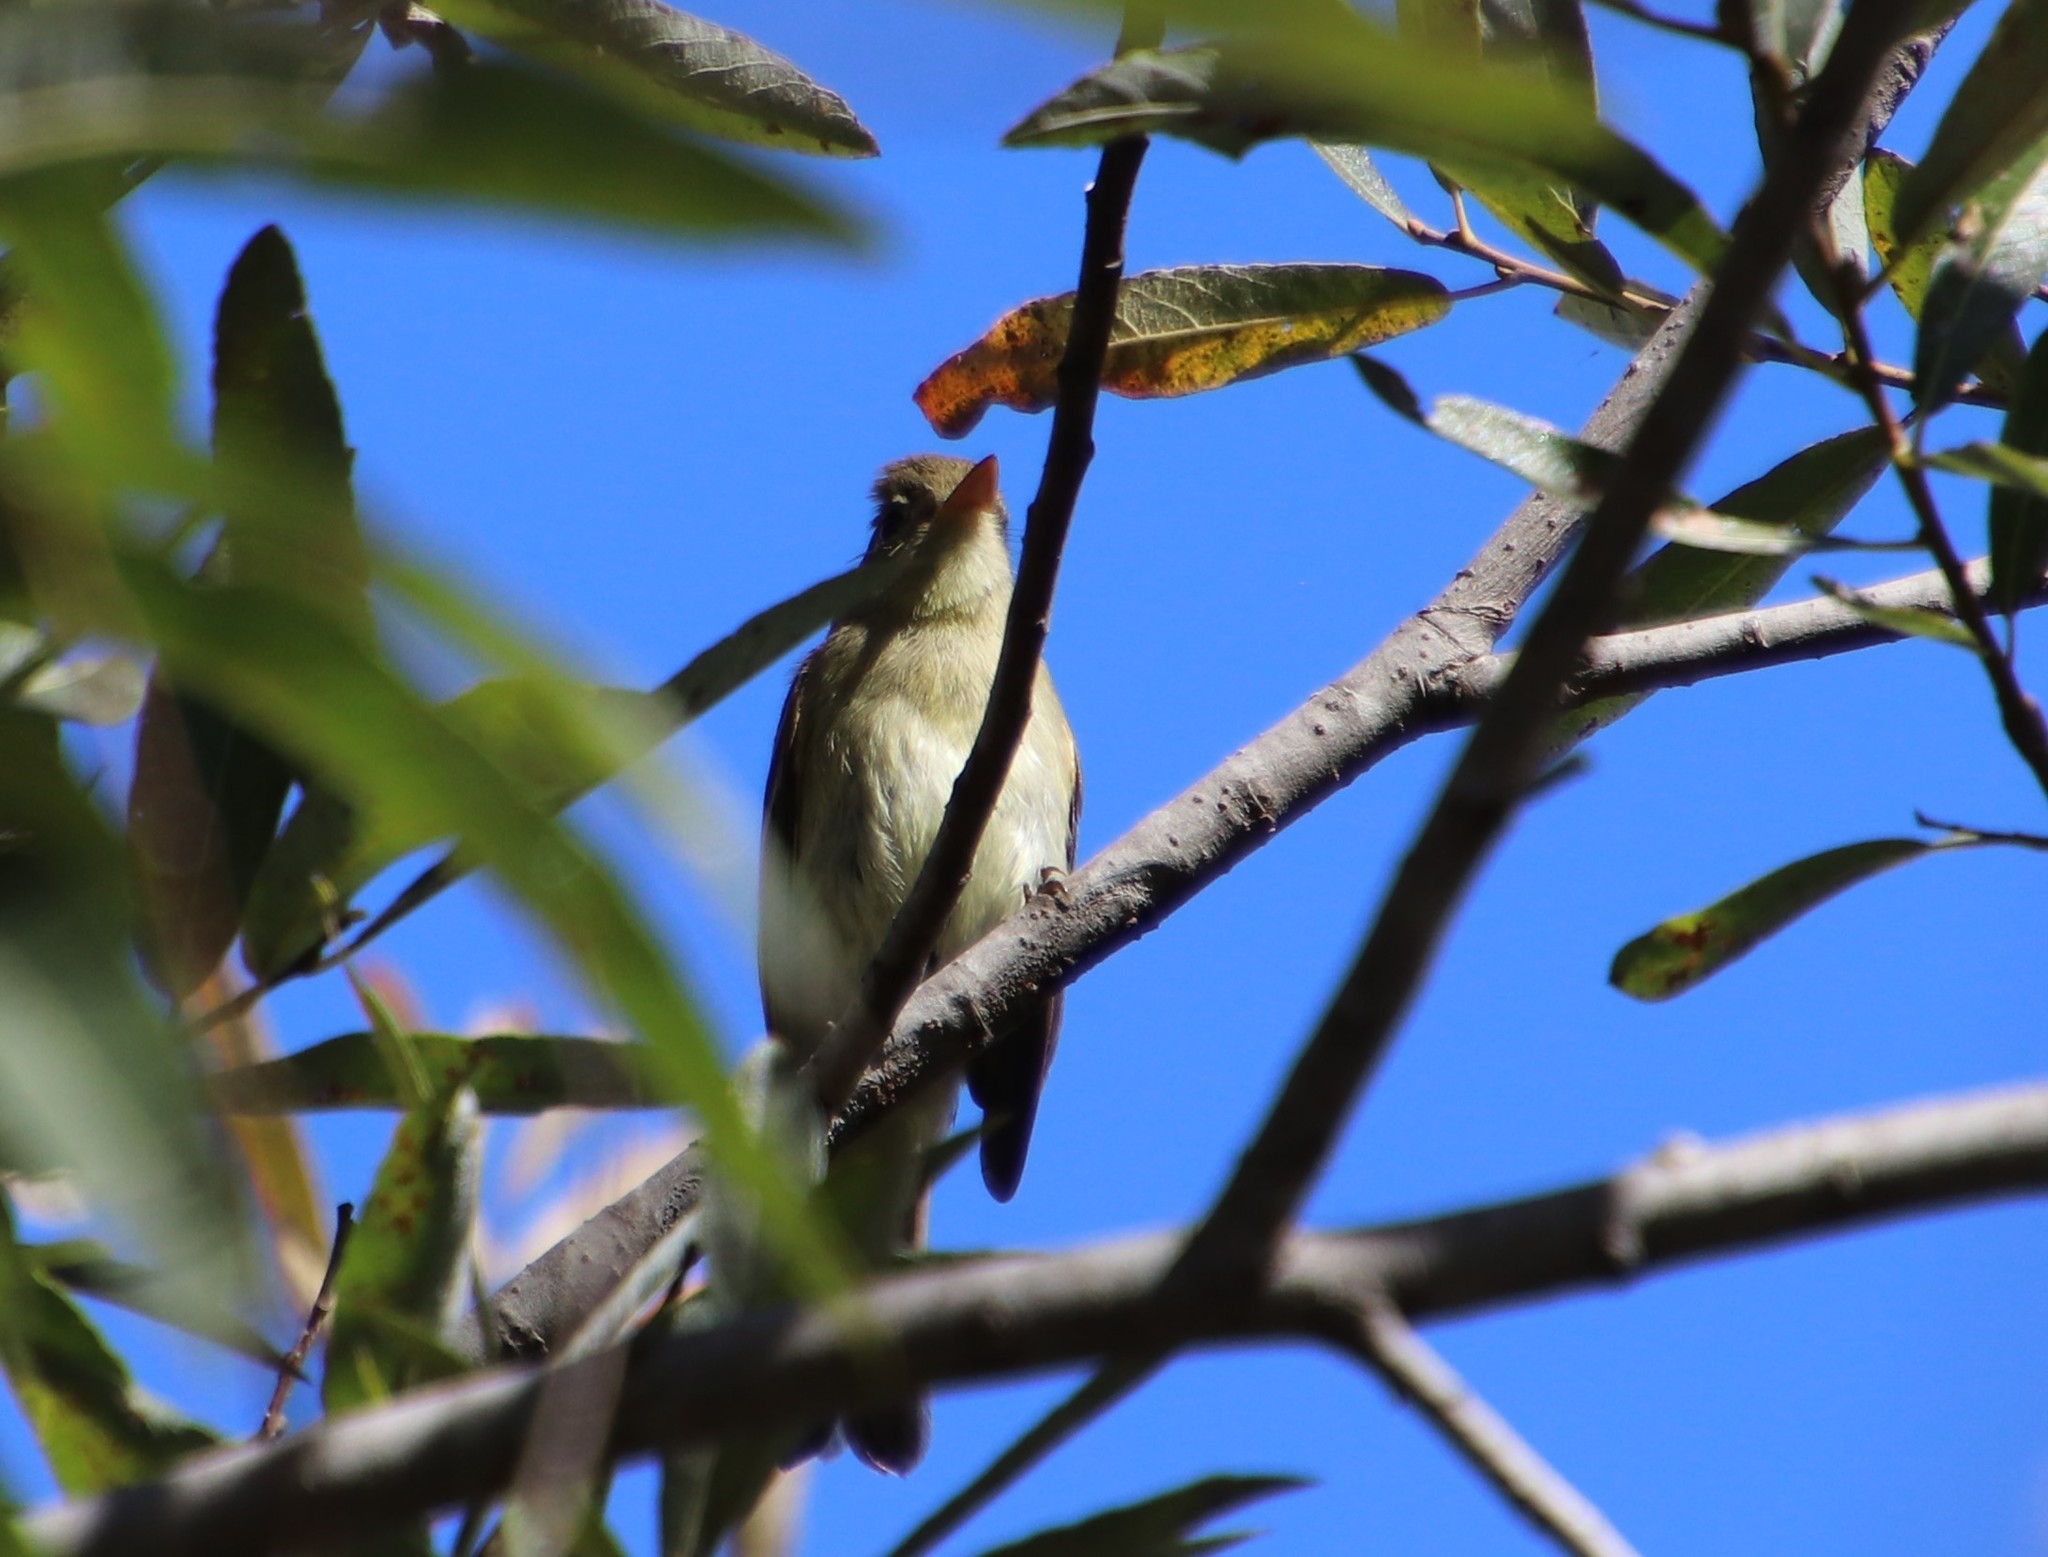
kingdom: Animalia
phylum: Chordata
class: Aves
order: Passeriformes
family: Tyrannidae
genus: Empidonax
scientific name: Empidonax difficilis
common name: Pacific-slope flycatcher
